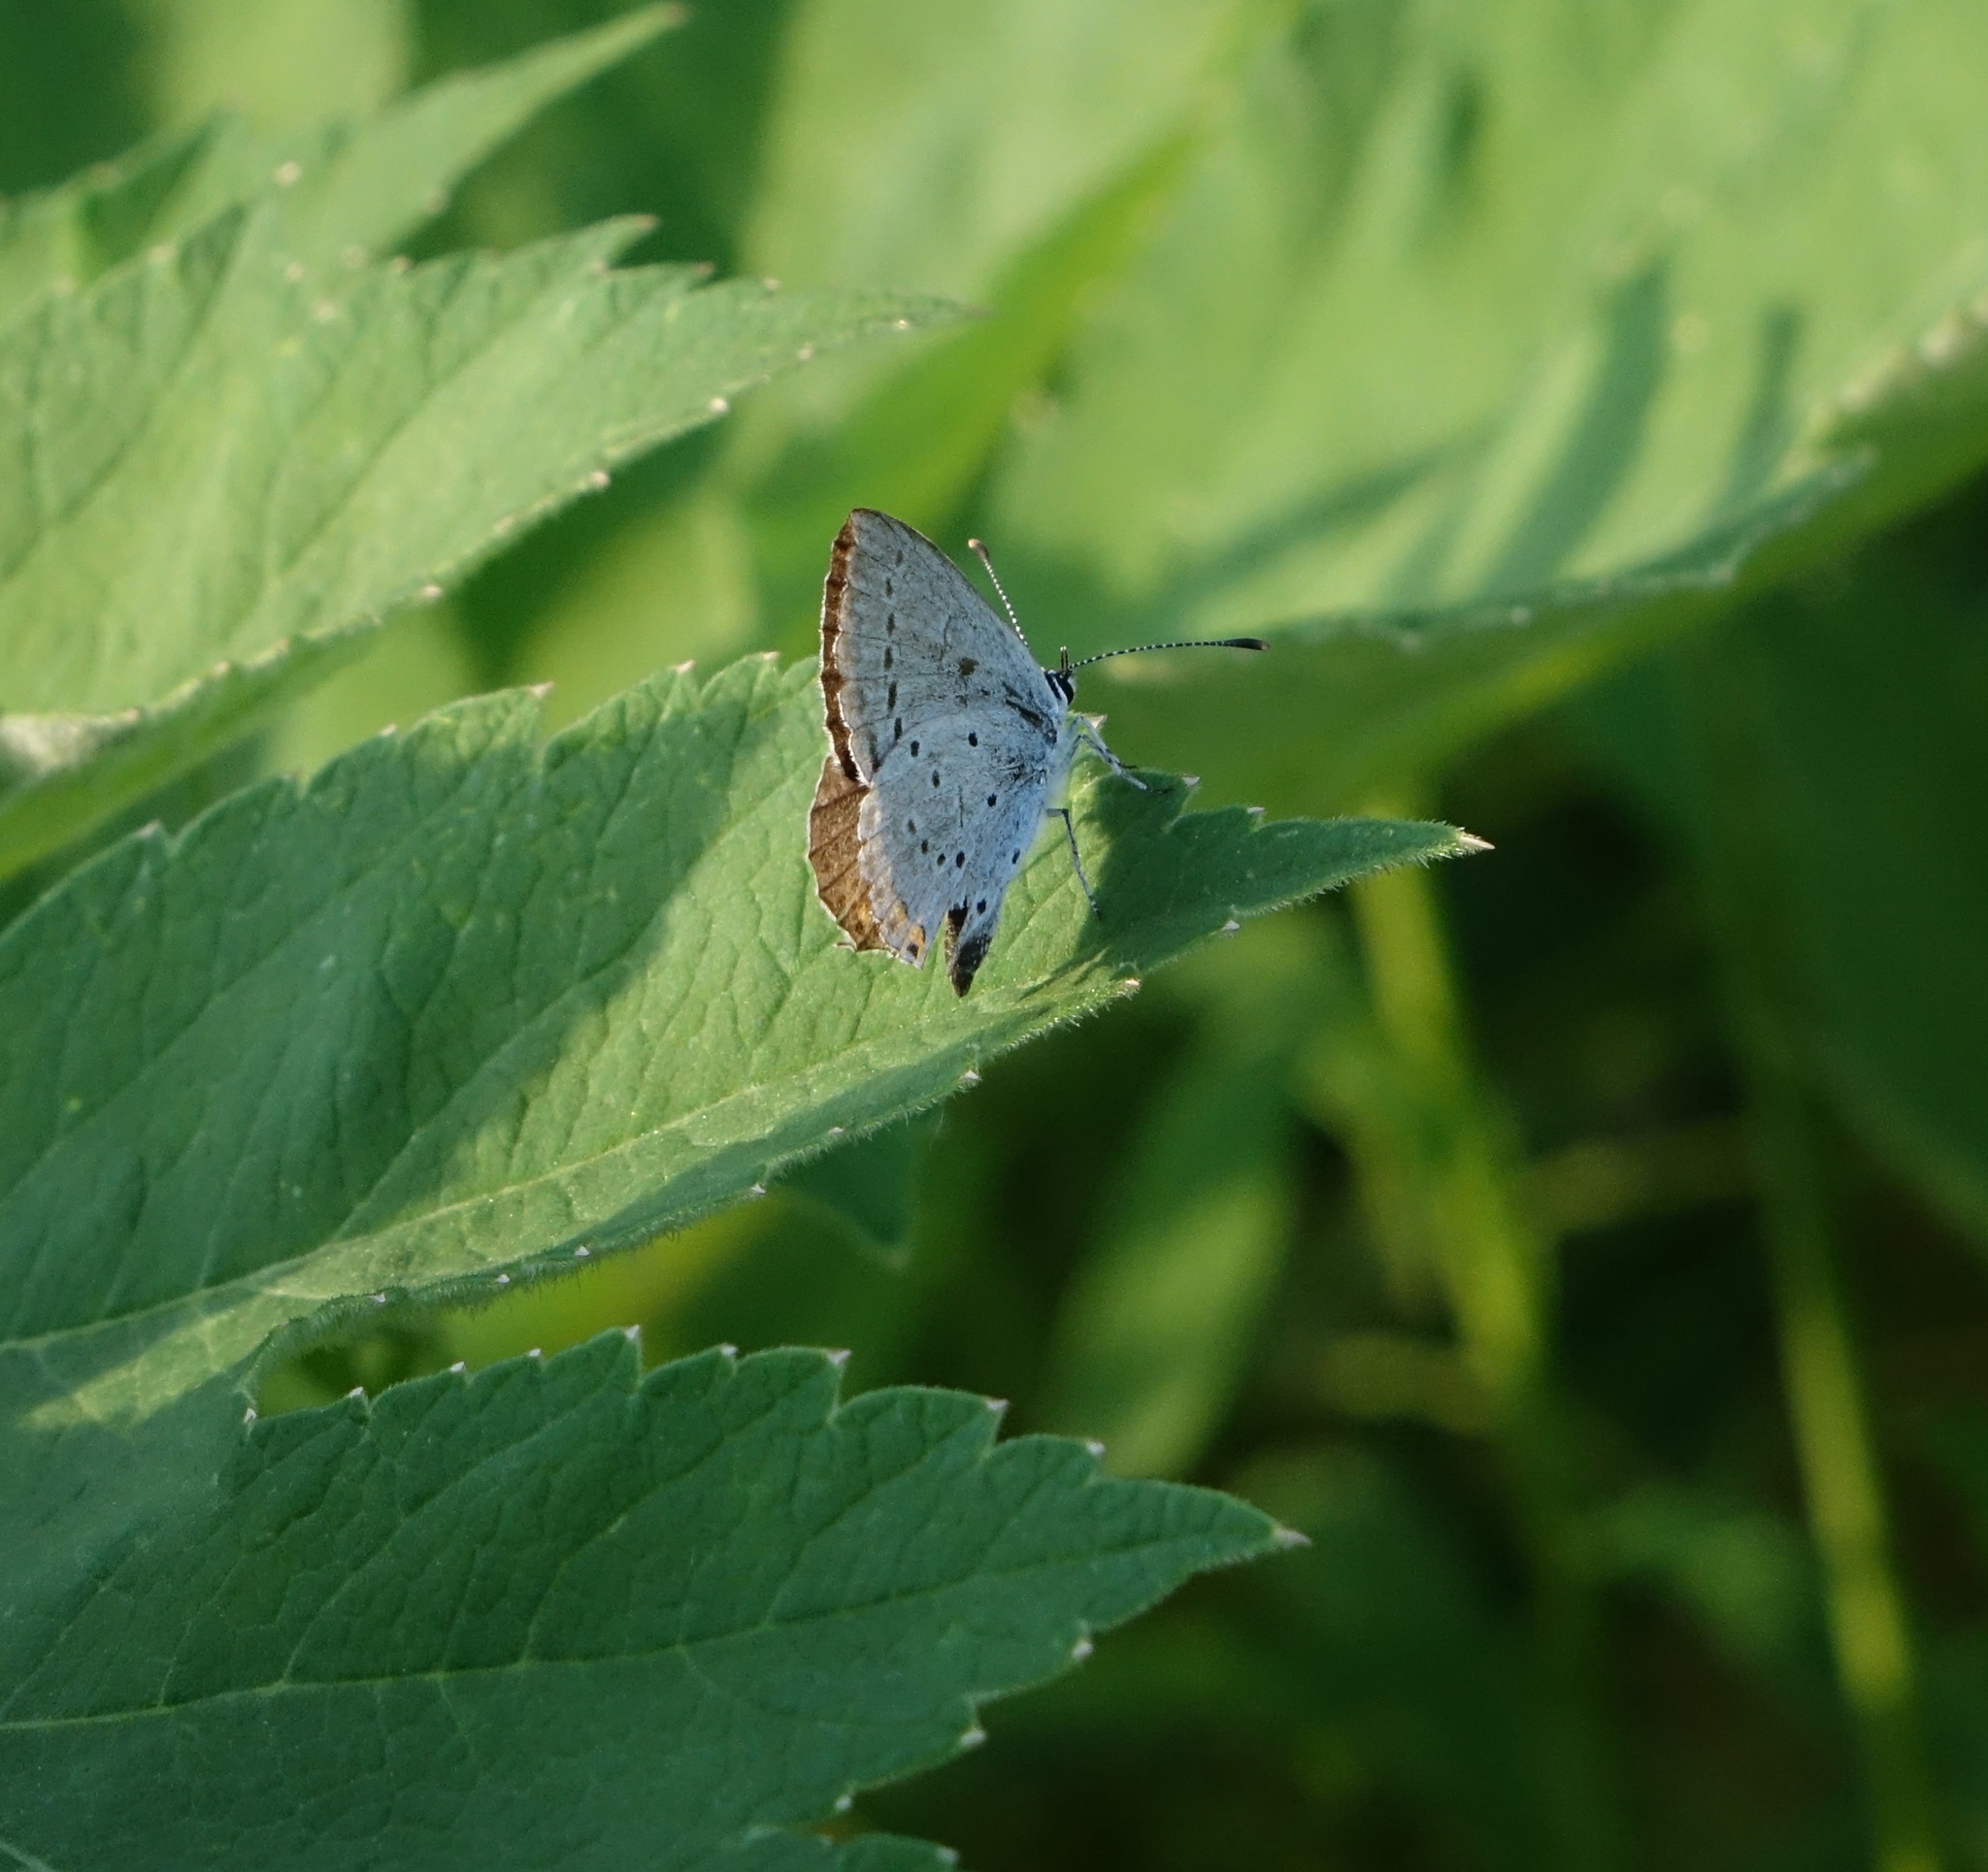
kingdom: Animalia
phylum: Arthropoda
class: Insecta
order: Lepidoptera
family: Lycaenidae
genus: Elkalyce
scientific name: Elkalyce argiades
